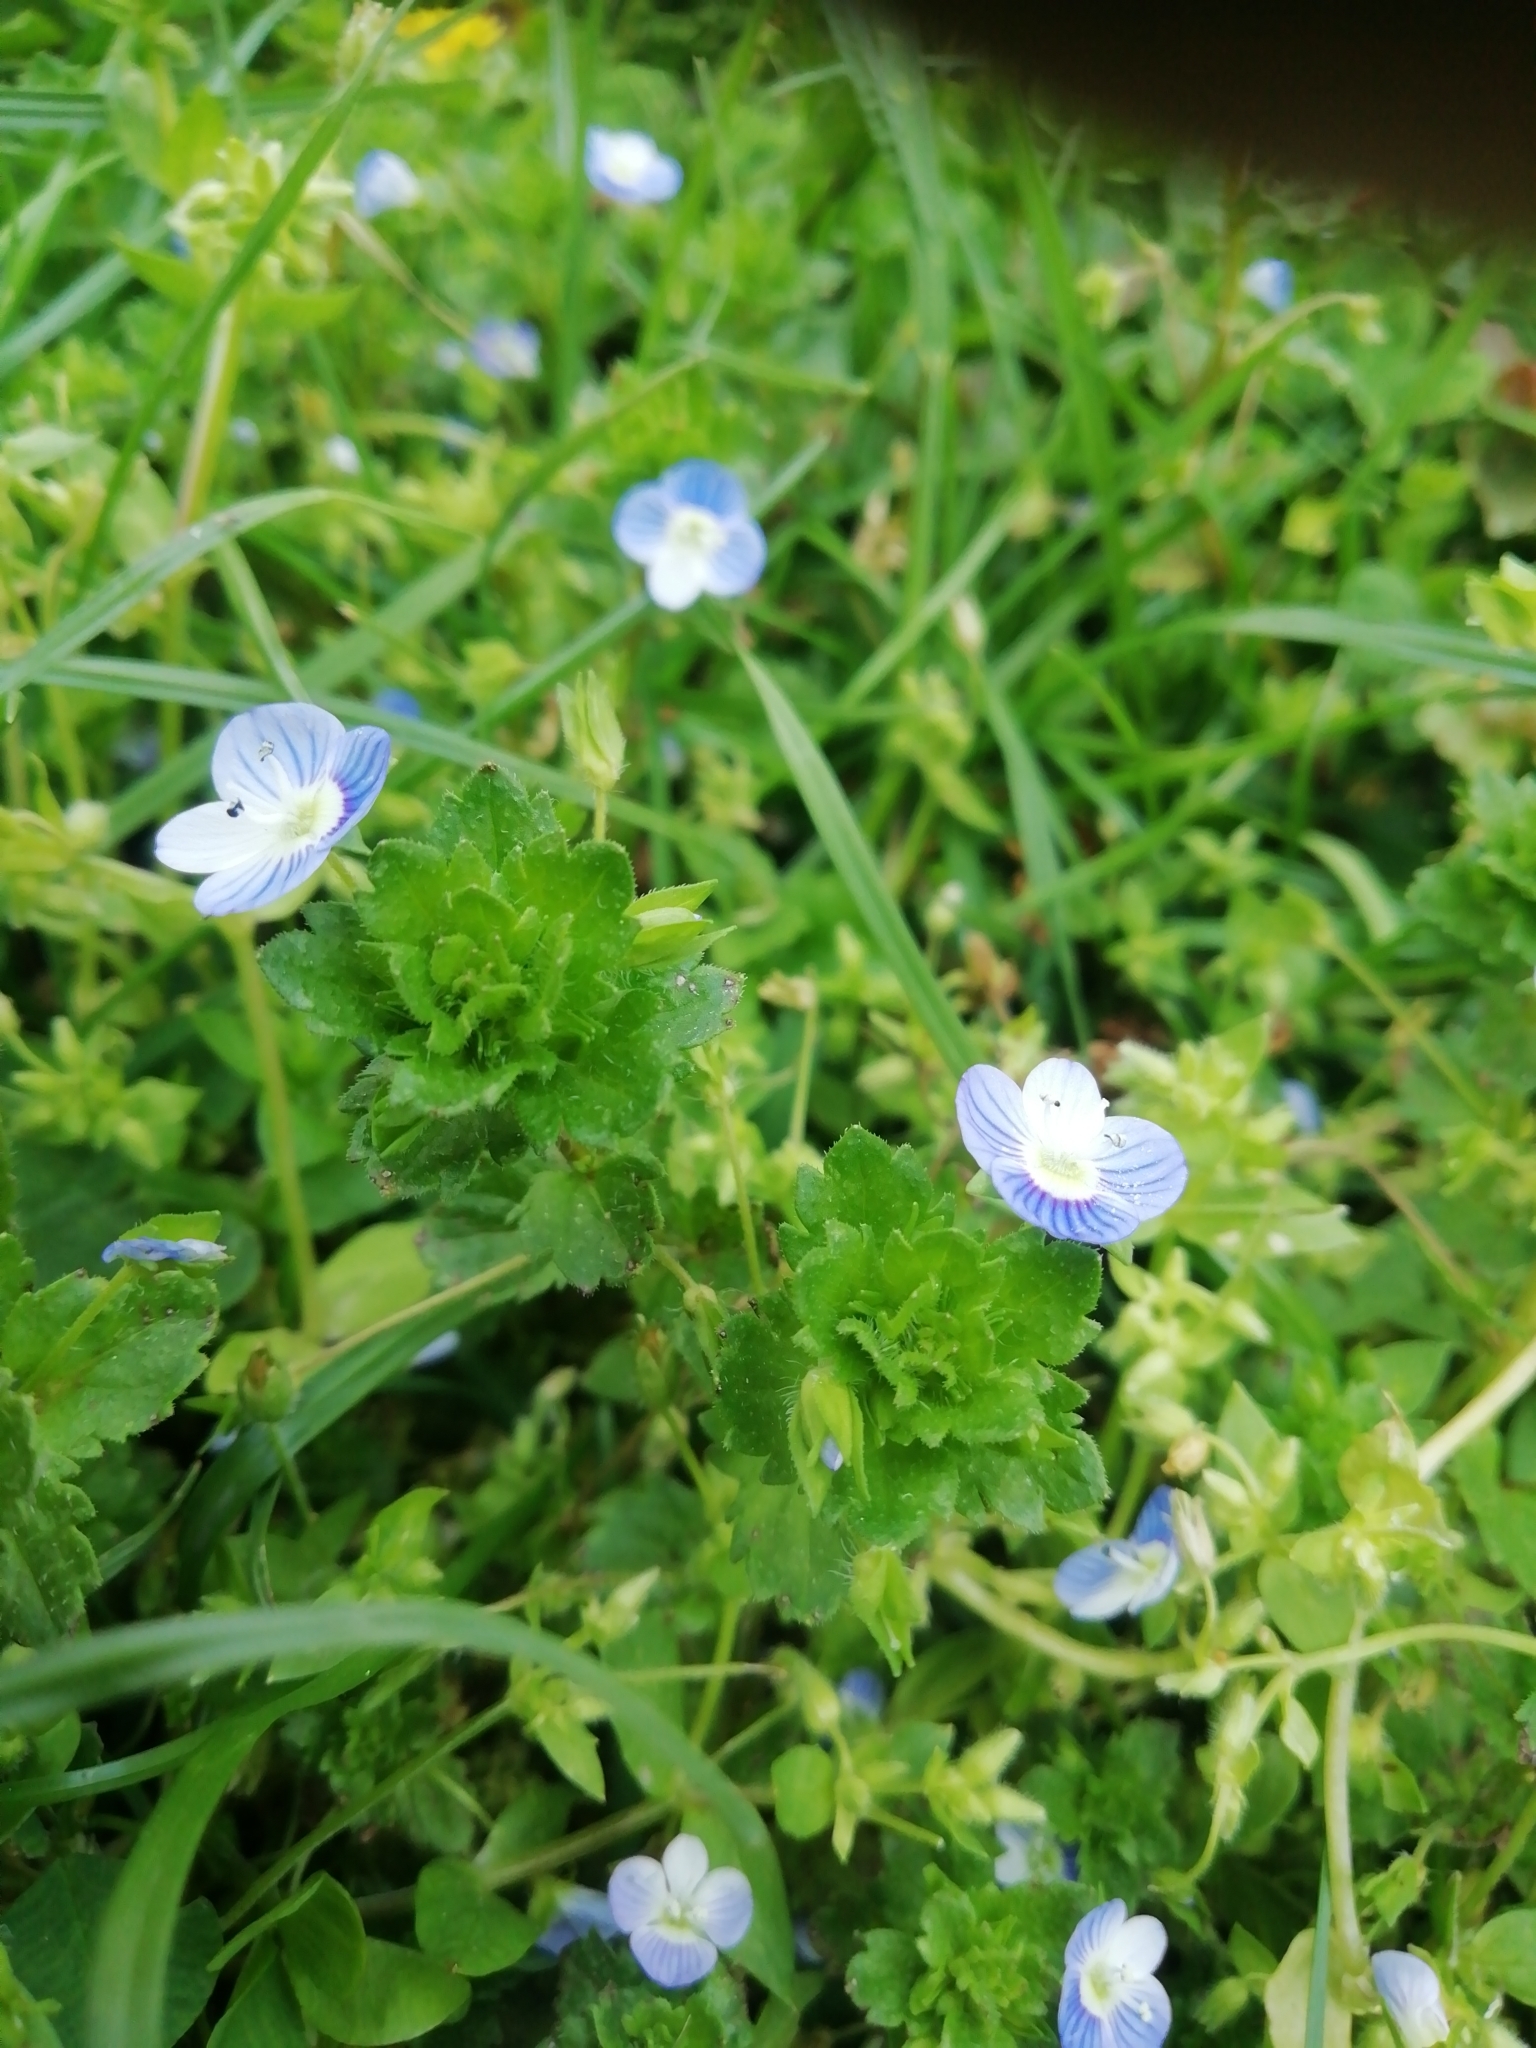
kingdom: Plantae
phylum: Tracheophyta
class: Magnoliopsida
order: Lamiales
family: Plantaginaceae
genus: Veronica
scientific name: Veronica persica
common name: Common field-speedwell
